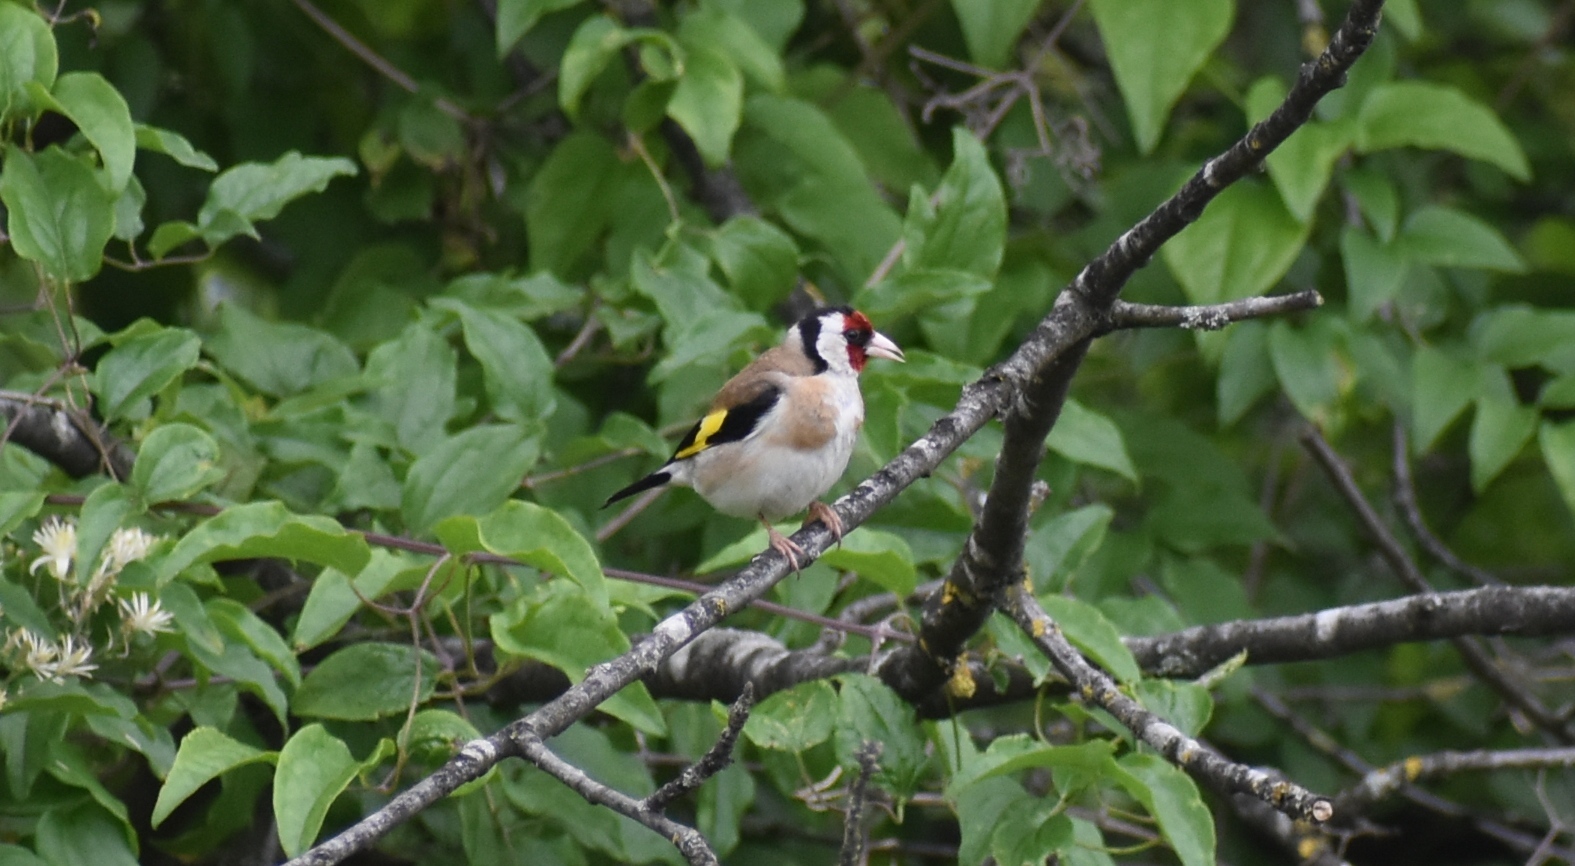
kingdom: Animalia
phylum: Chordata
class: Aves
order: Passeriformes
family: Fringillidae
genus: Carduelis
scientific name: Carduelis carduelis
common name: European goldfinch
